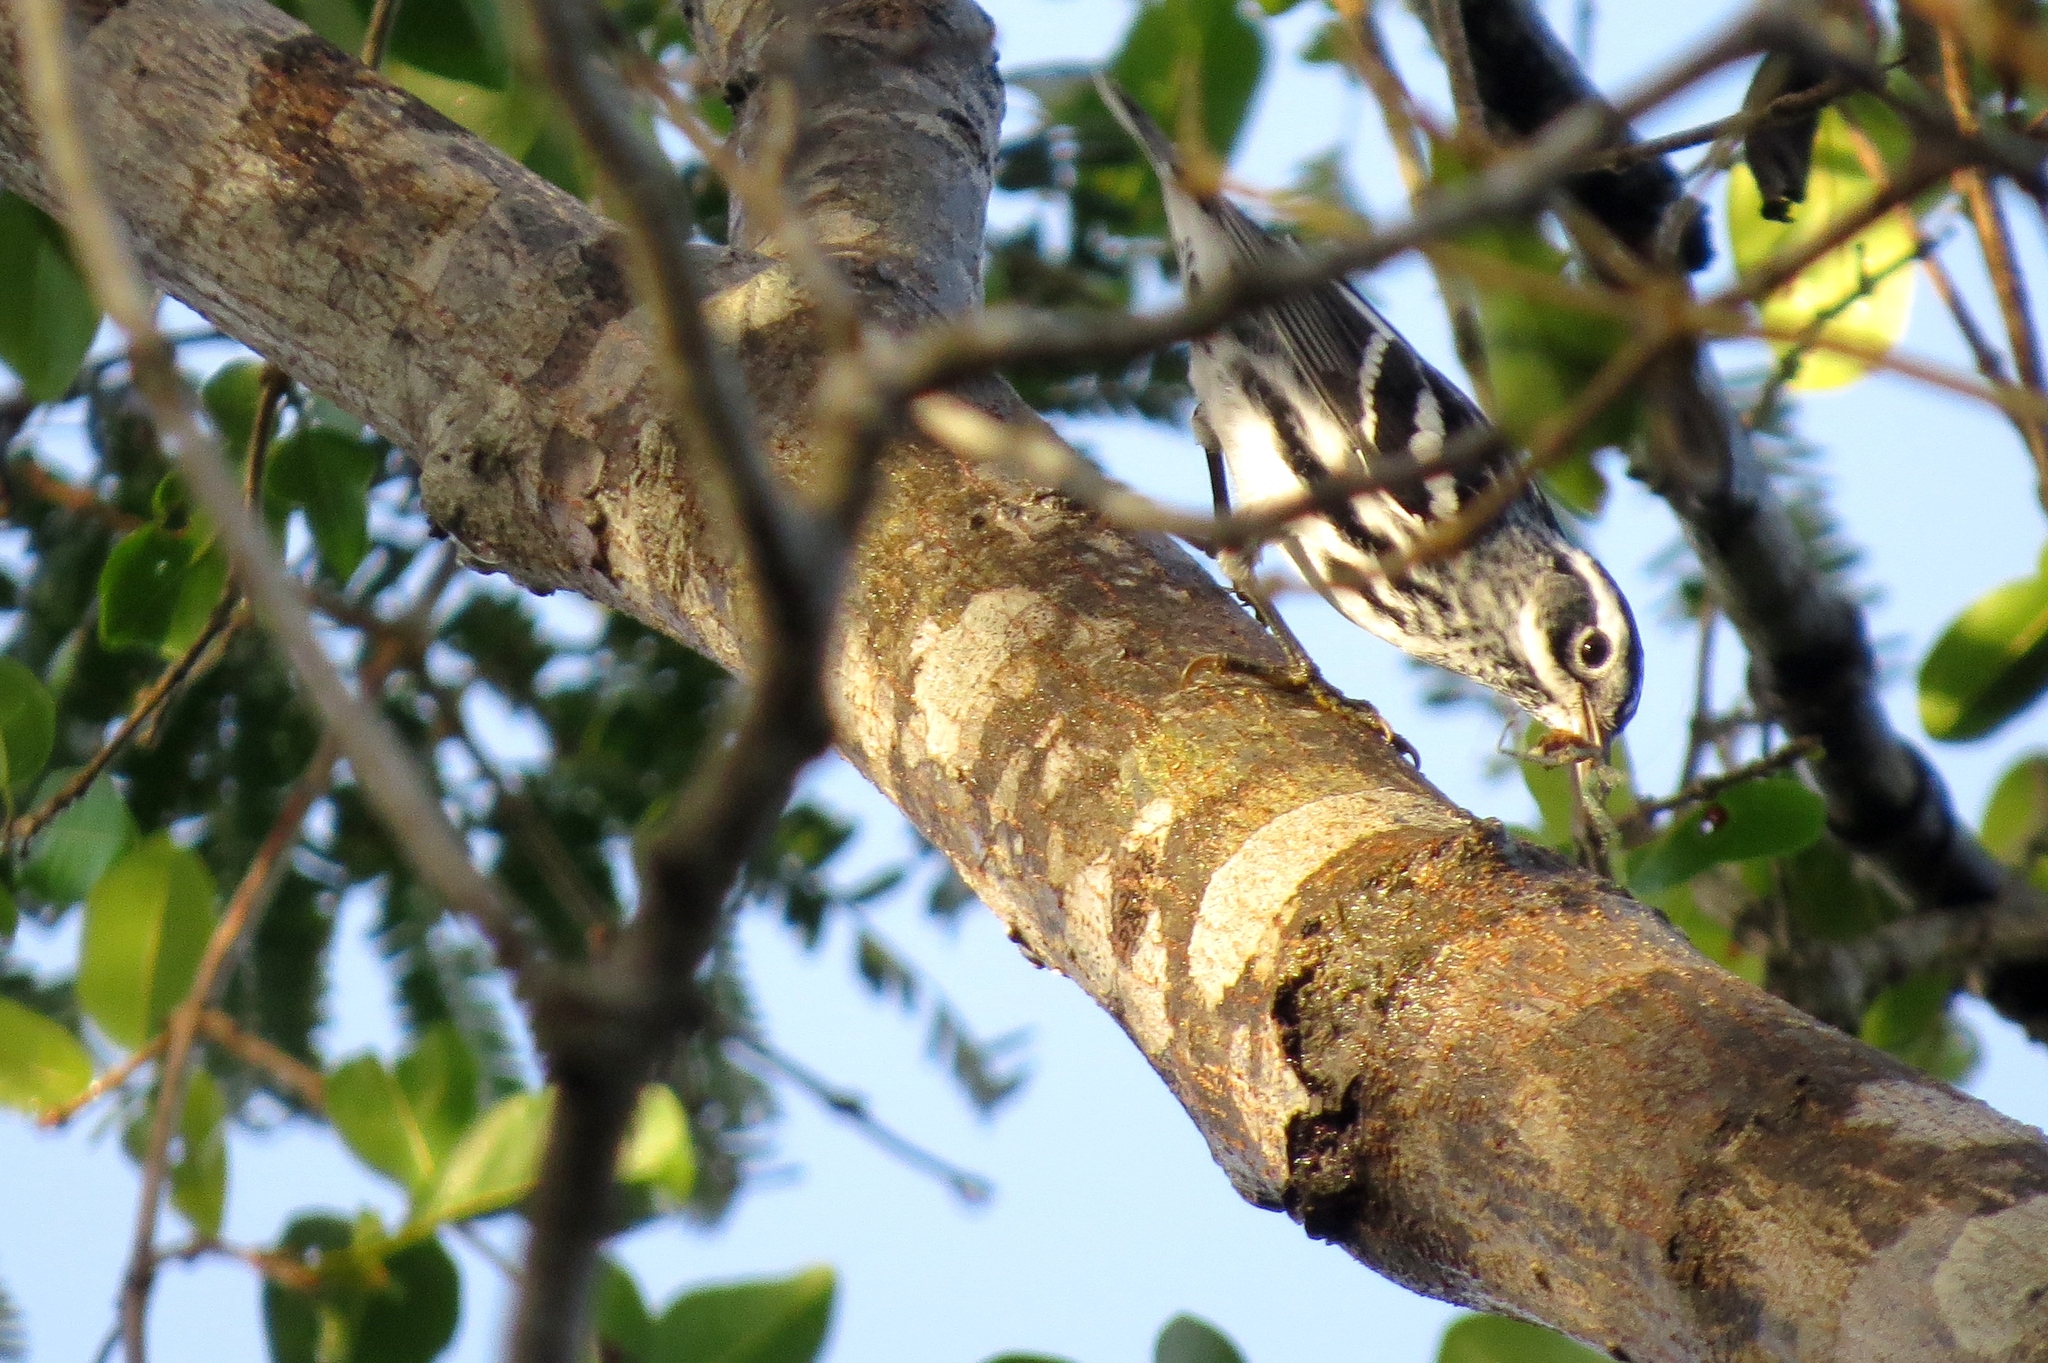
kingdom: Animalia
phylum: Chordata
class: Aves
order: Passeriformes
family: Parulidae
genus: Mniotilta
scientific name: Mniotilta varia
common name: Black-and-white warbler
